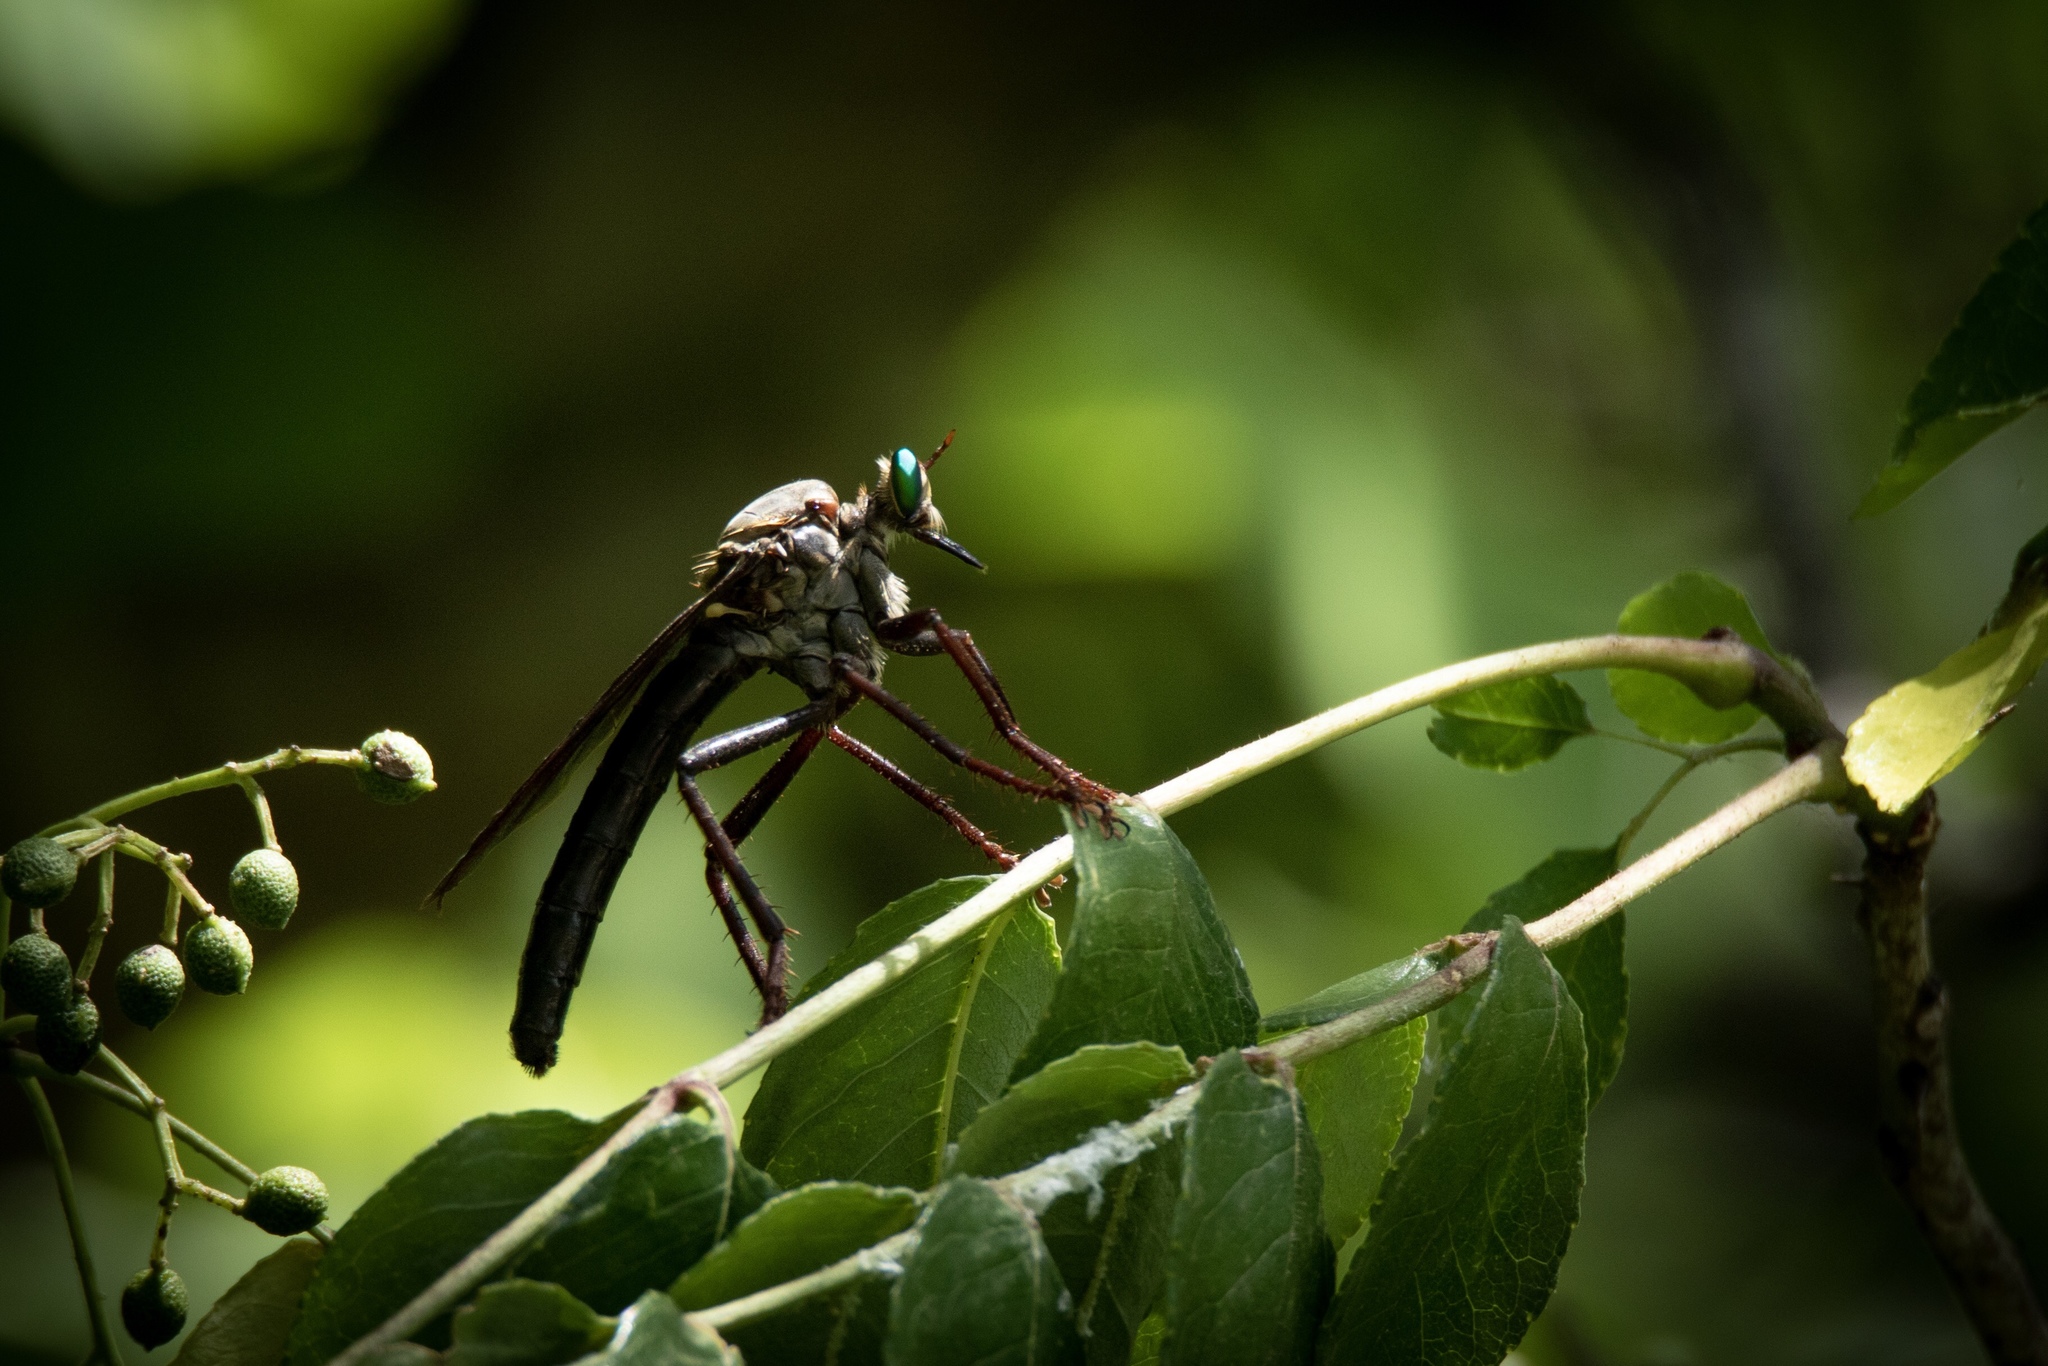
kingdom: Animalia
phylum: Arthropoda
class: Insecta
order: Diptera
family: Asilidae
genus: Microstylum
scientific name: Microstylum morosum
